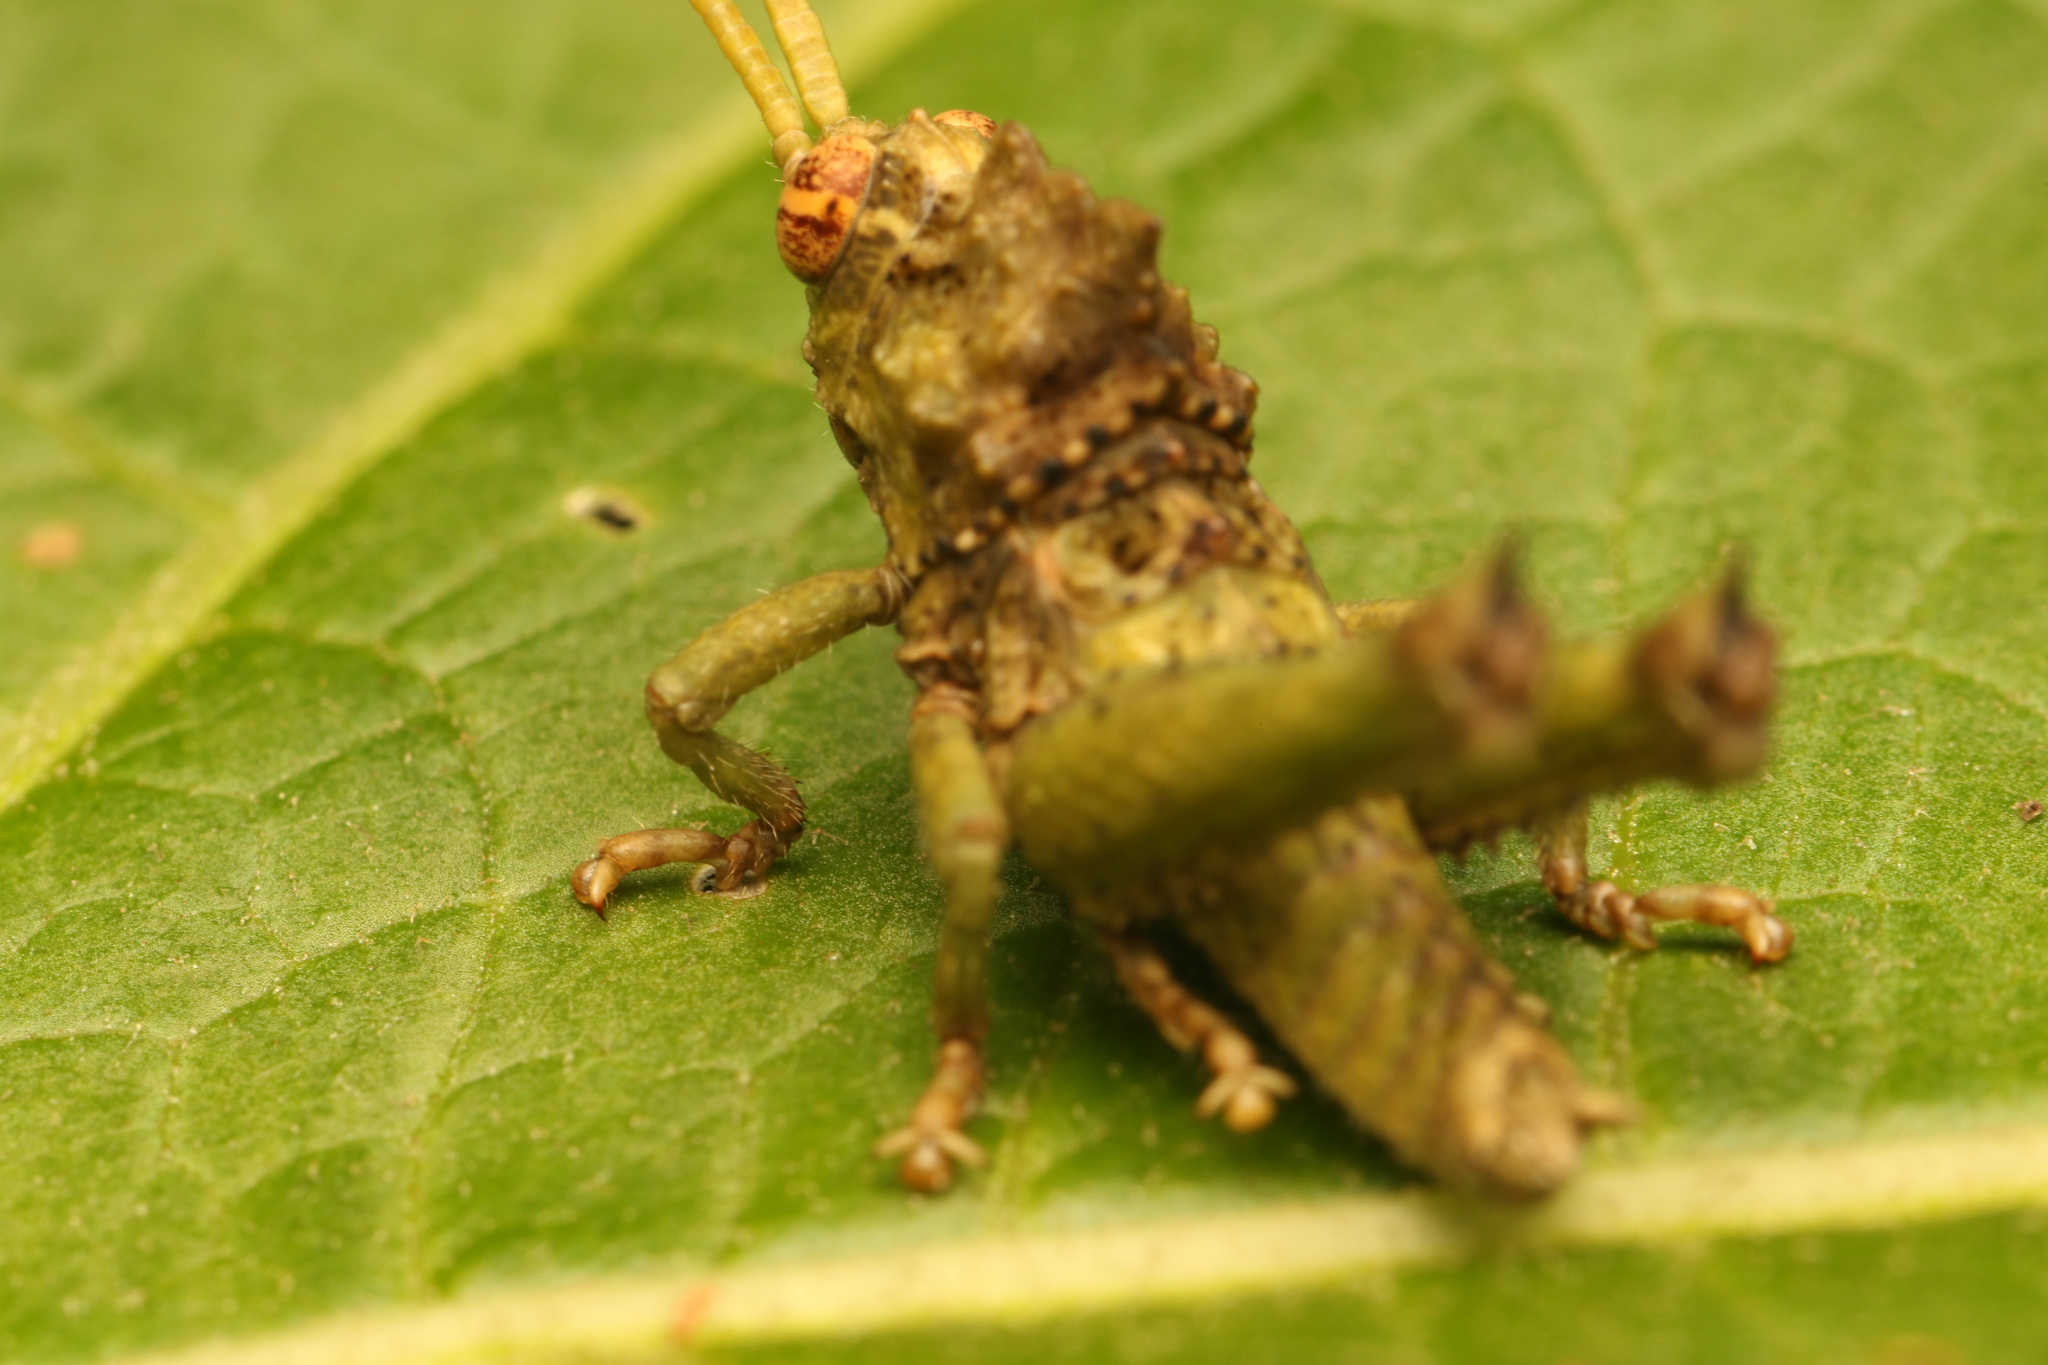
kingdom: Animalia
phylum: Arthropoda
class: Insecta
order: Orthoptera
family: Acrididae
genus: Pycnosarcus
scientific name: Pycnosarcus atavus
